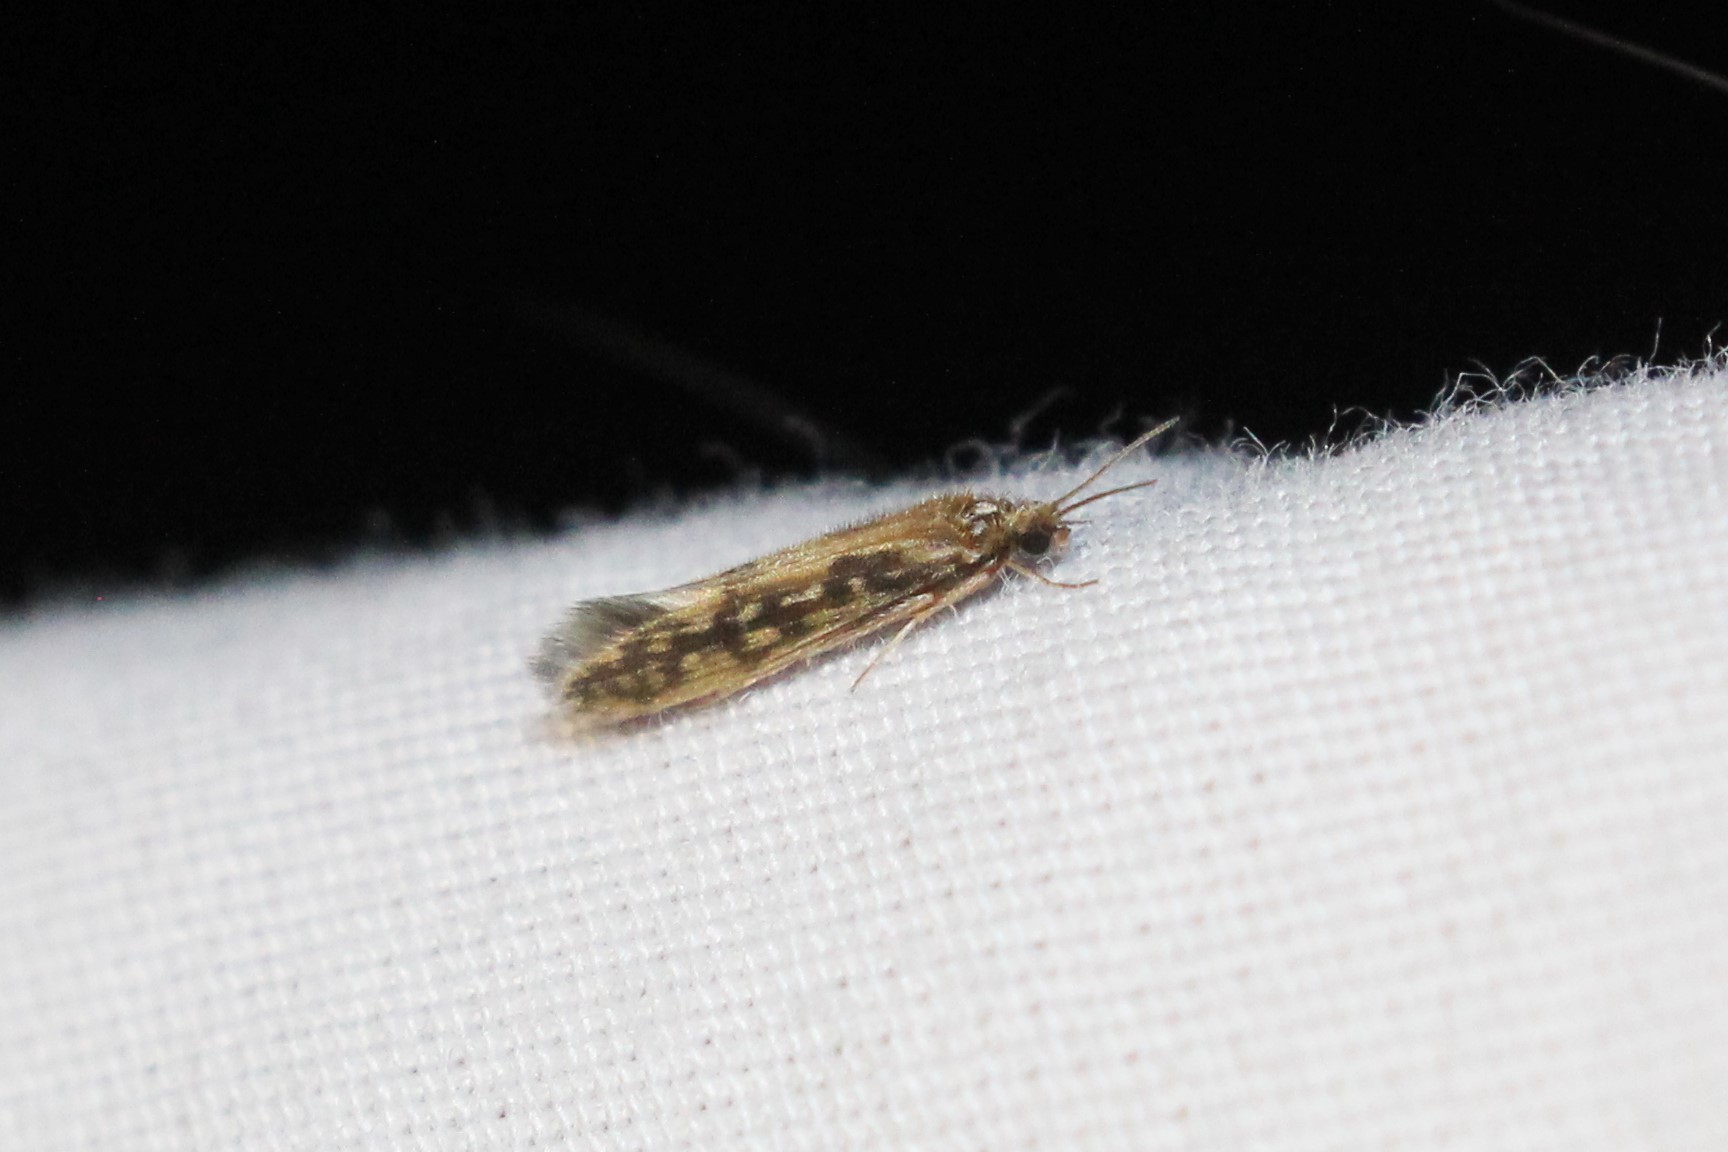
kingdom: Animalia
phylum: Arthropoda
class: Insecta
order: Trichoptera
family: Hydroptilidae
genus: Agraylea
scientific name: Agraylea multipunctata
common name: Salt and pepper microcaddisfly
